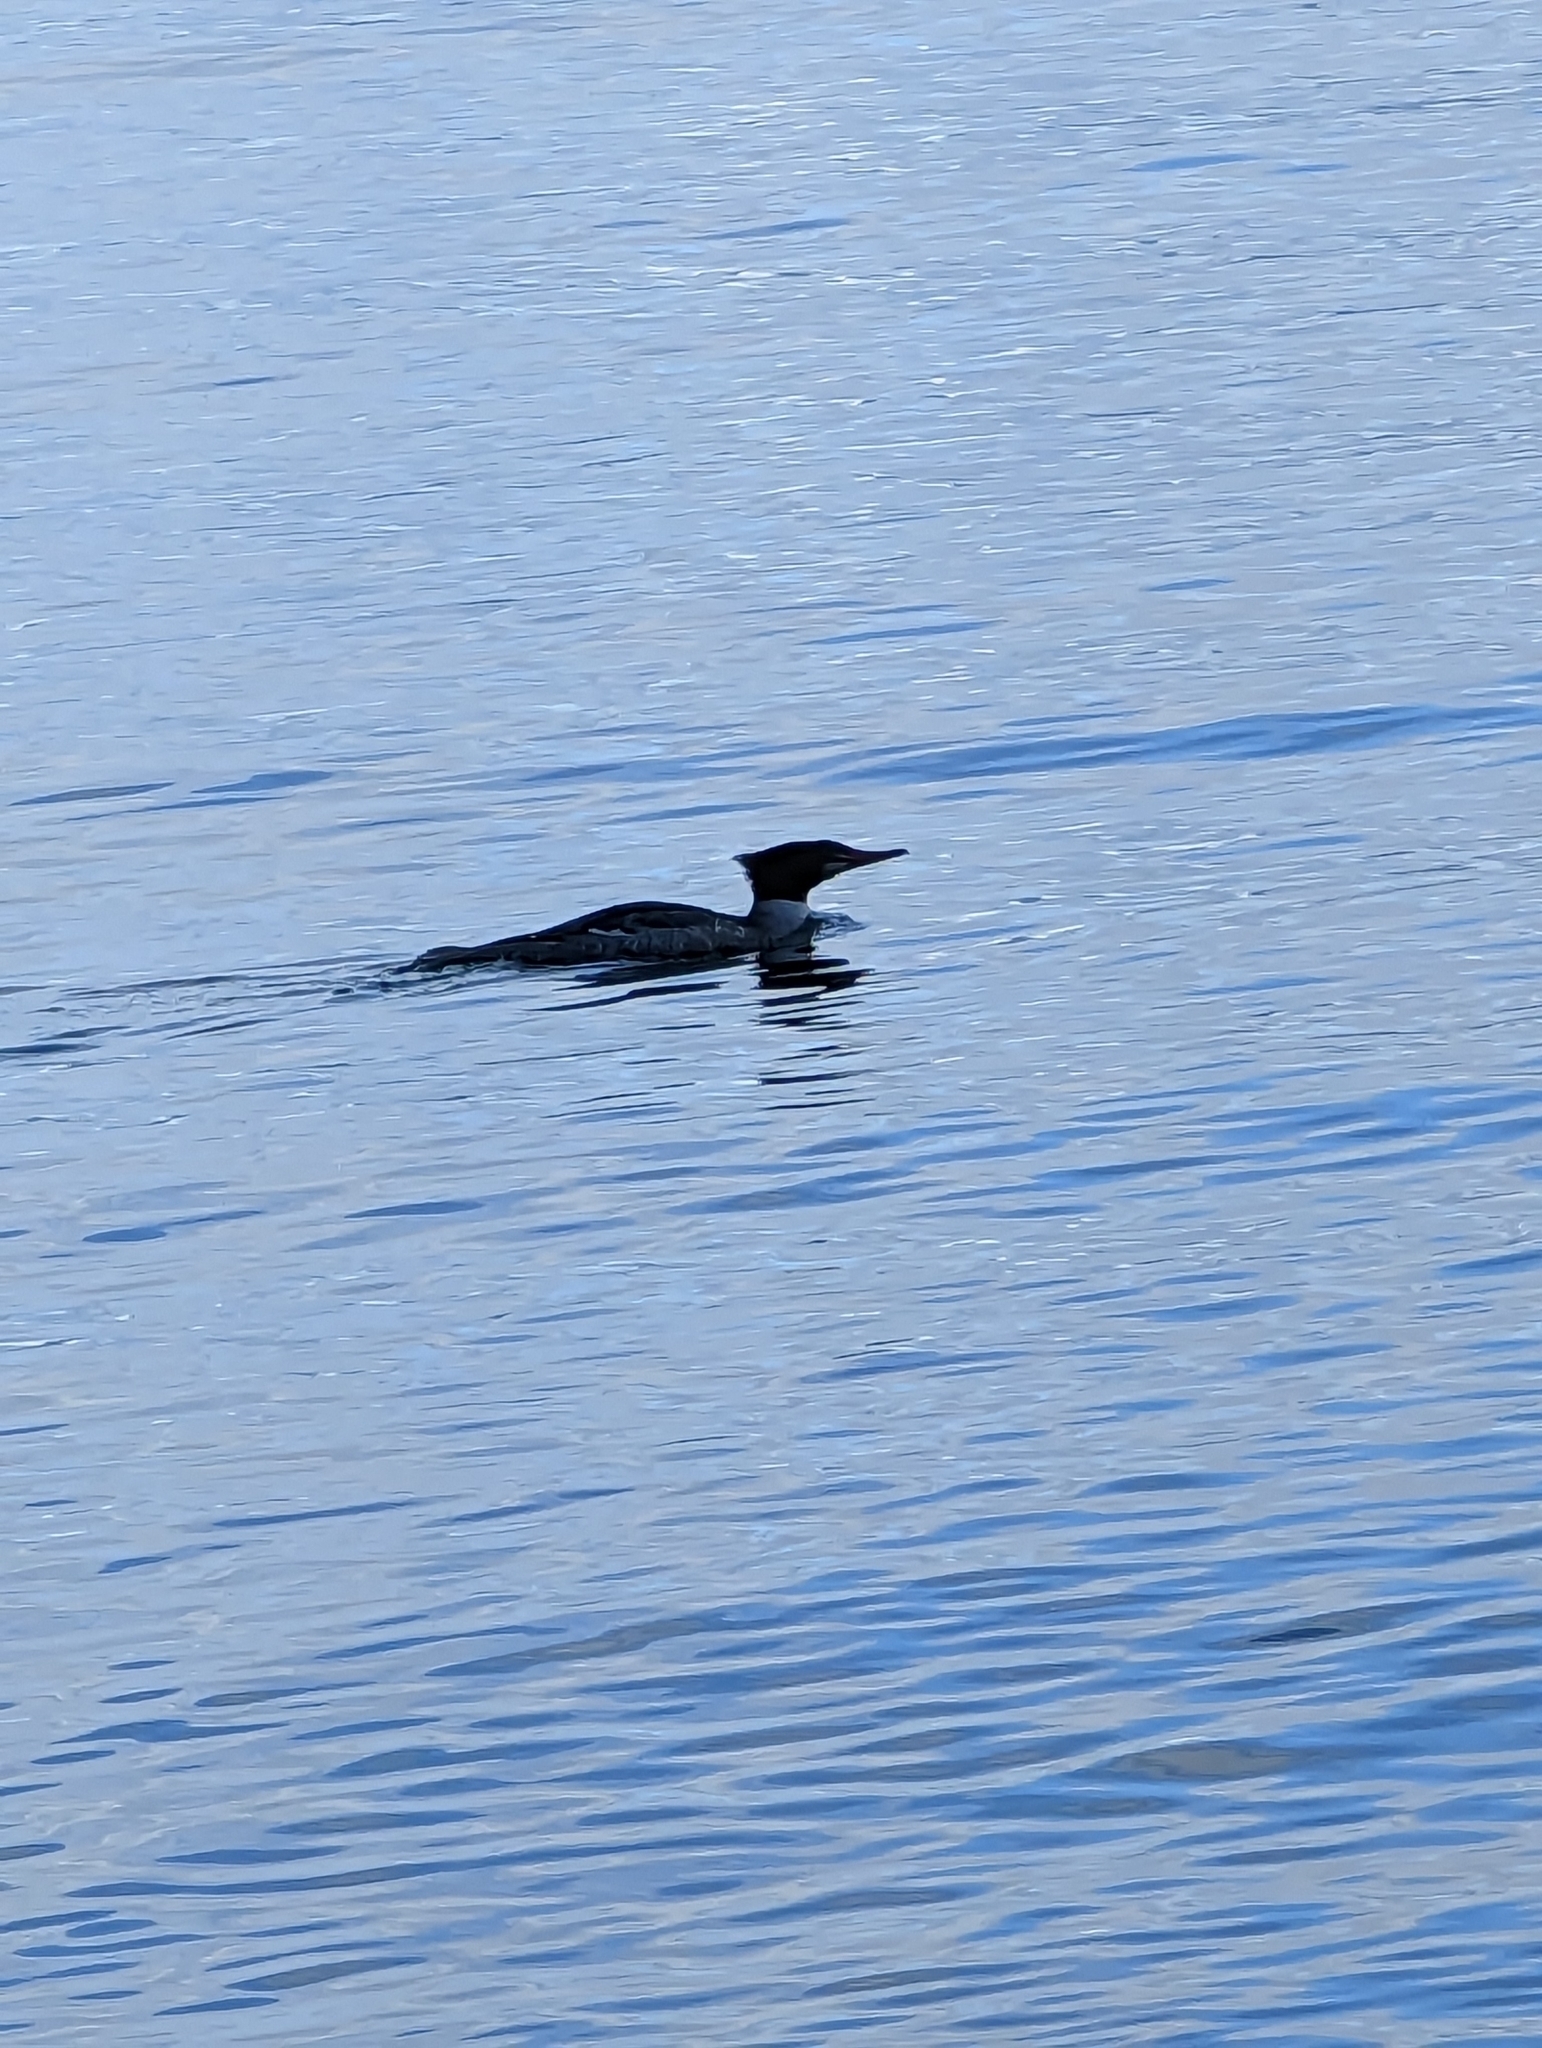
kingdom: Animalia
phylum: Chordata
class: Aves
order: Anseriformes
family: Anatidae
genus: Mergus
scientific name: Mergus merganser
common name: Common merganser
